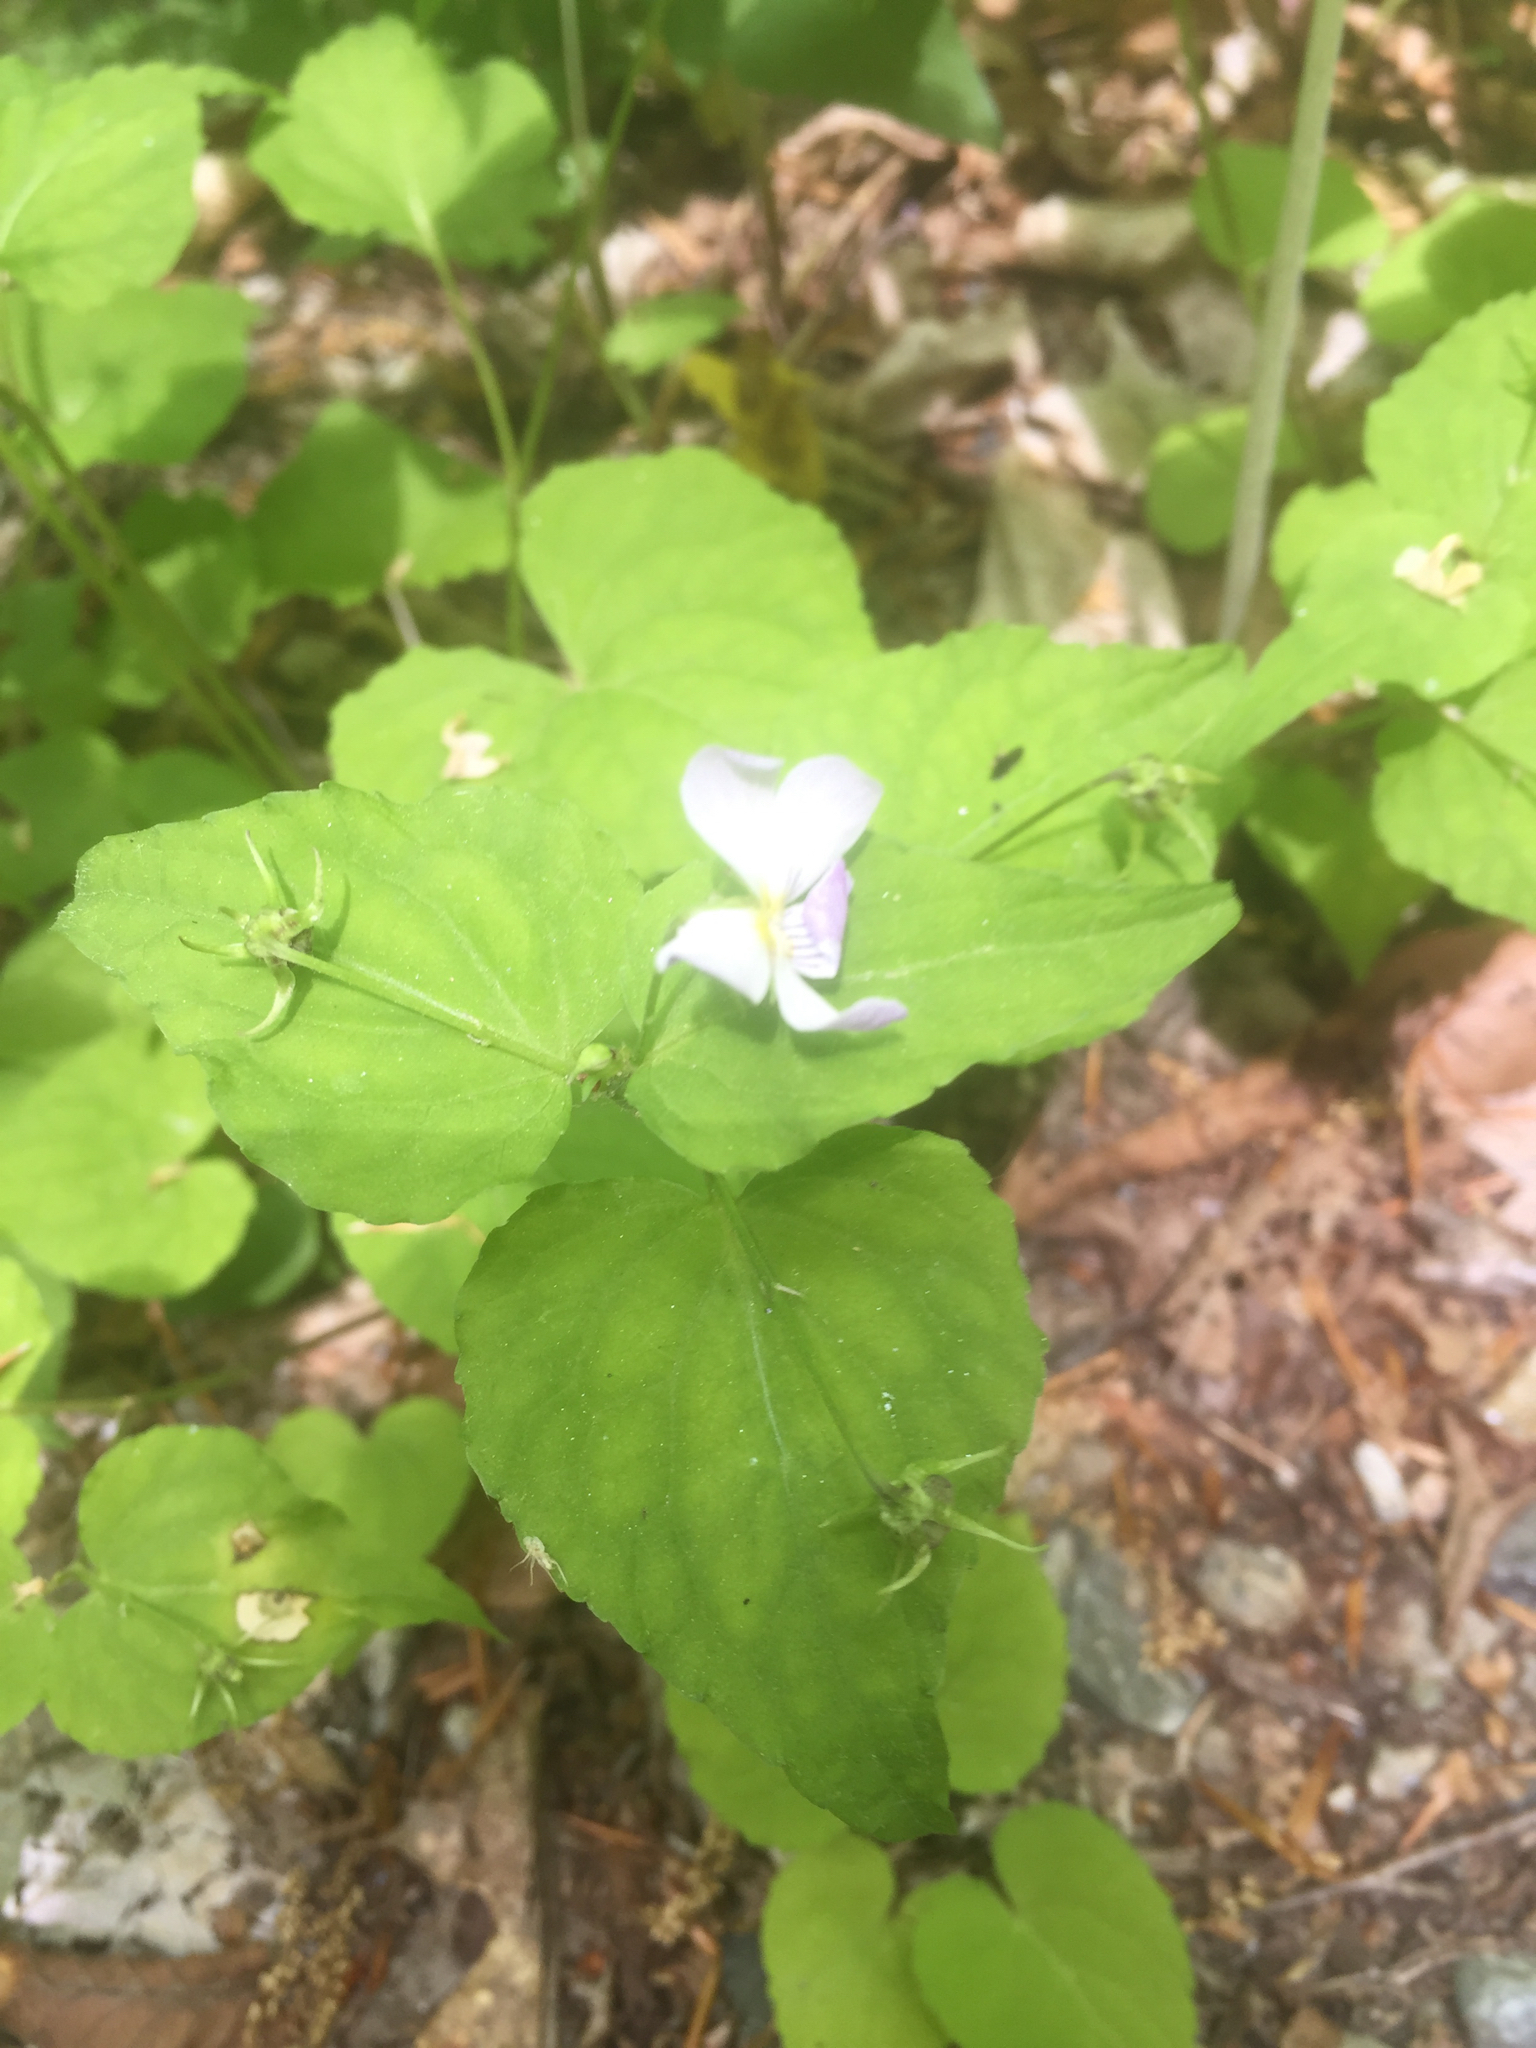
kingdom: Plantae
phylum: Tracheophyta
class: Magnoliopsida
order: Malpighiales
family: Violaceae
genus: Viola
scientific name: Viola canadensis
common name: Canada violet
